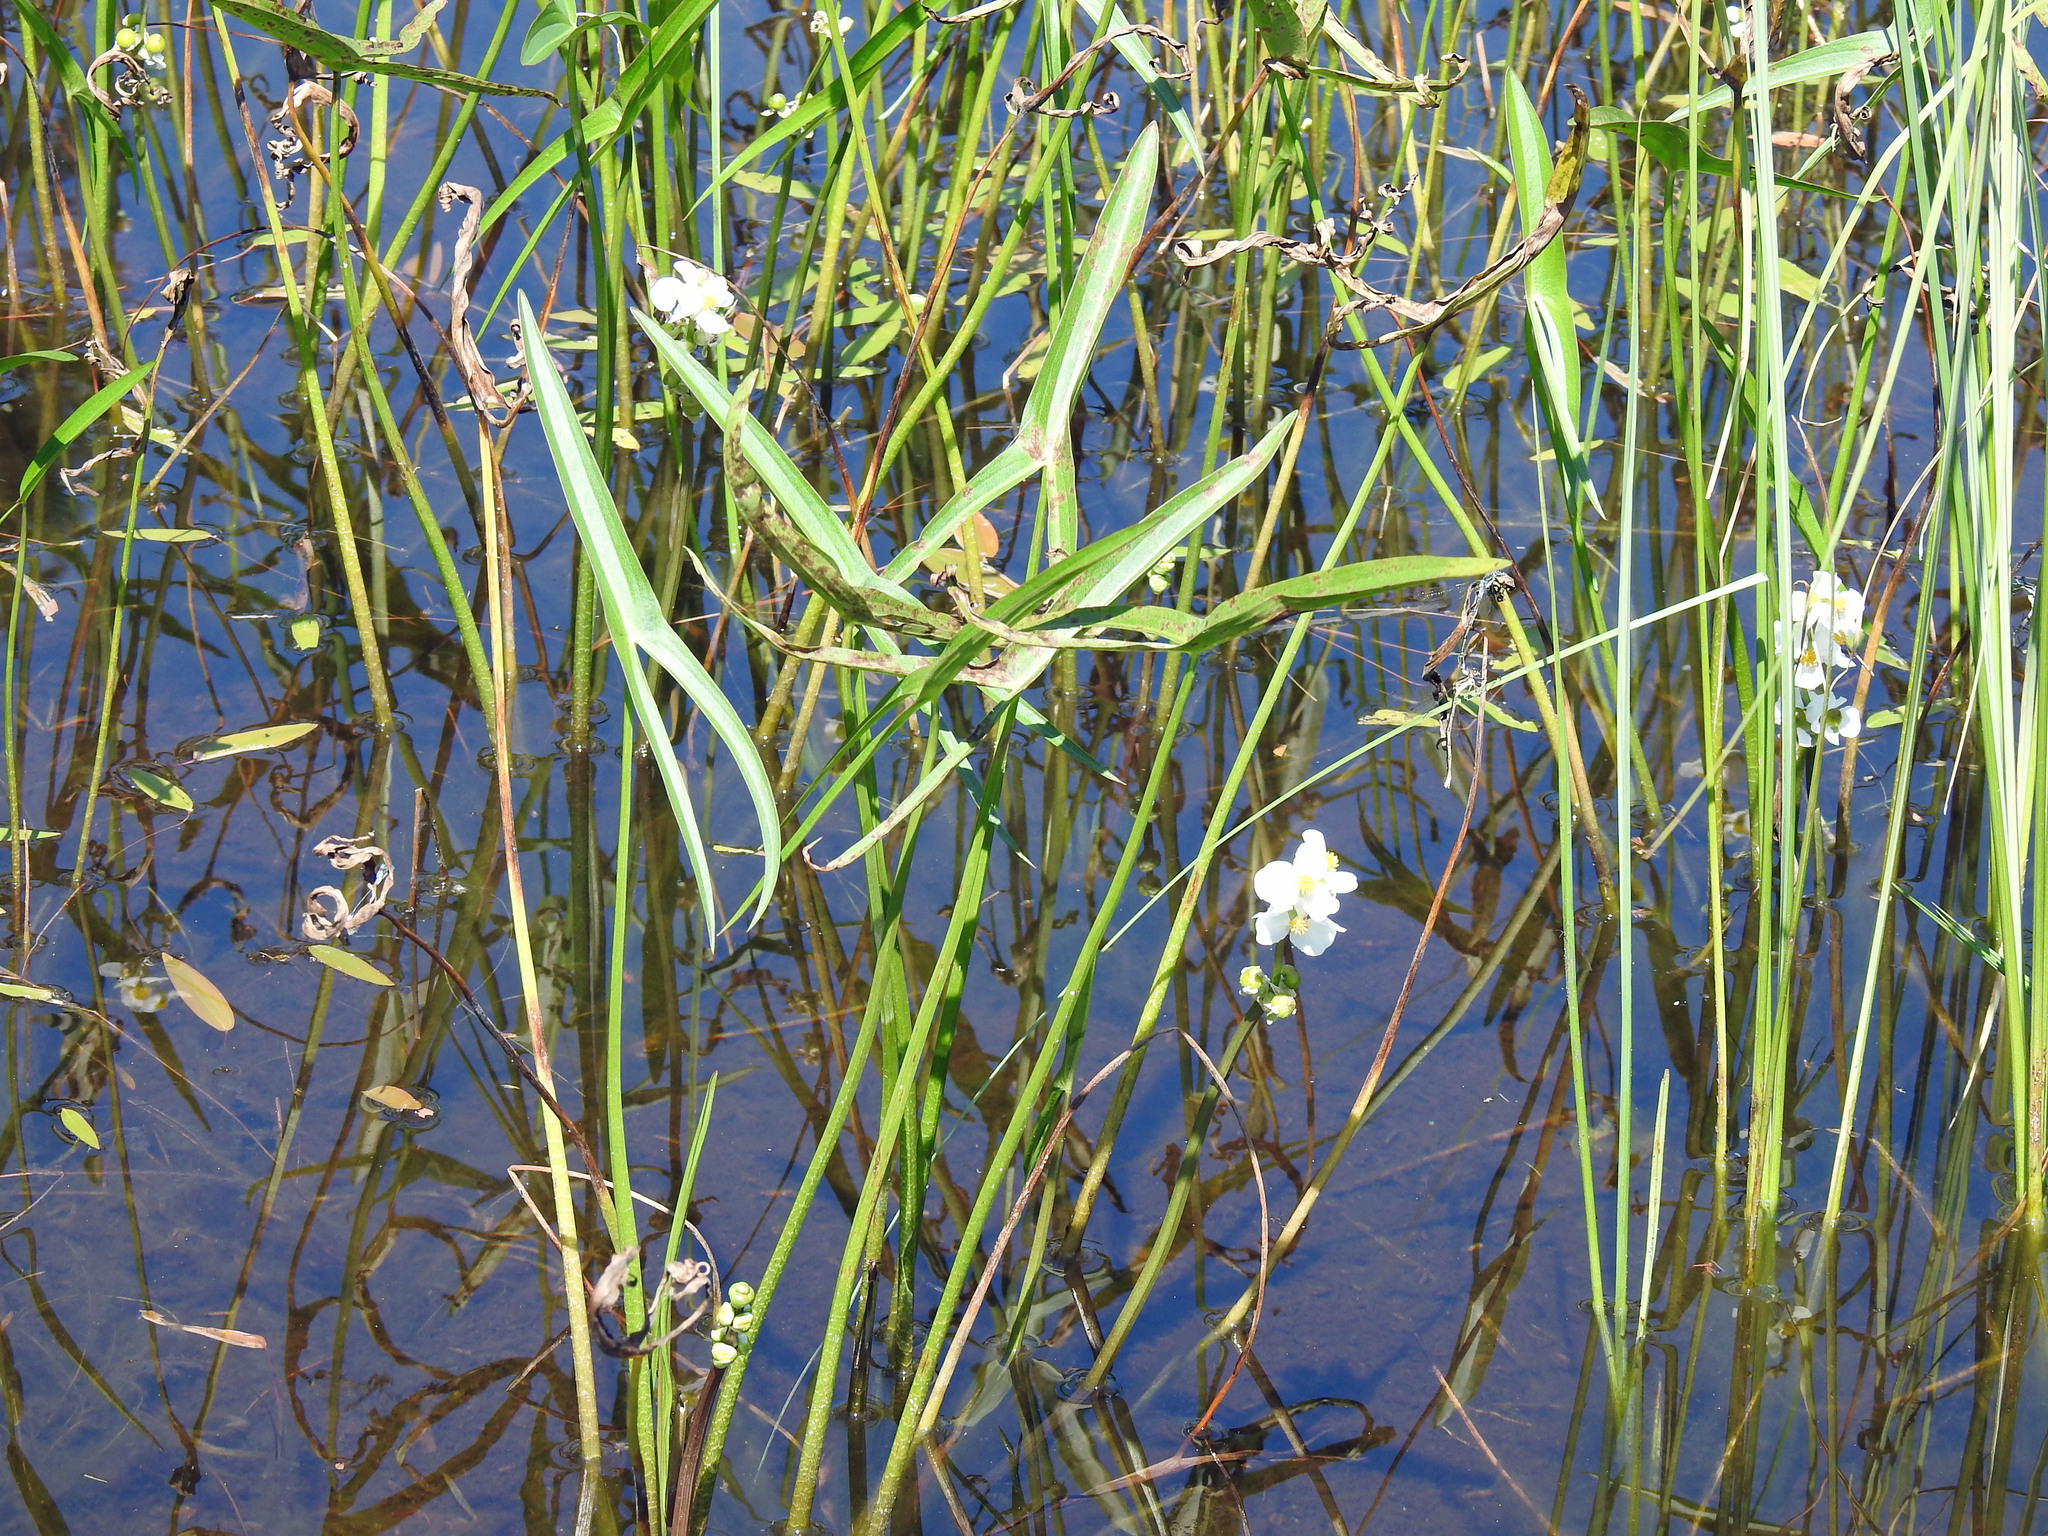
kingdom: Plantae
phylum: Tracheophyta
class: Liliopsida
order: Alismatales
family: Alismataceae
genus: Sagittaria
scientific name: Sagittaria latifolia
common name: Duck-potato
